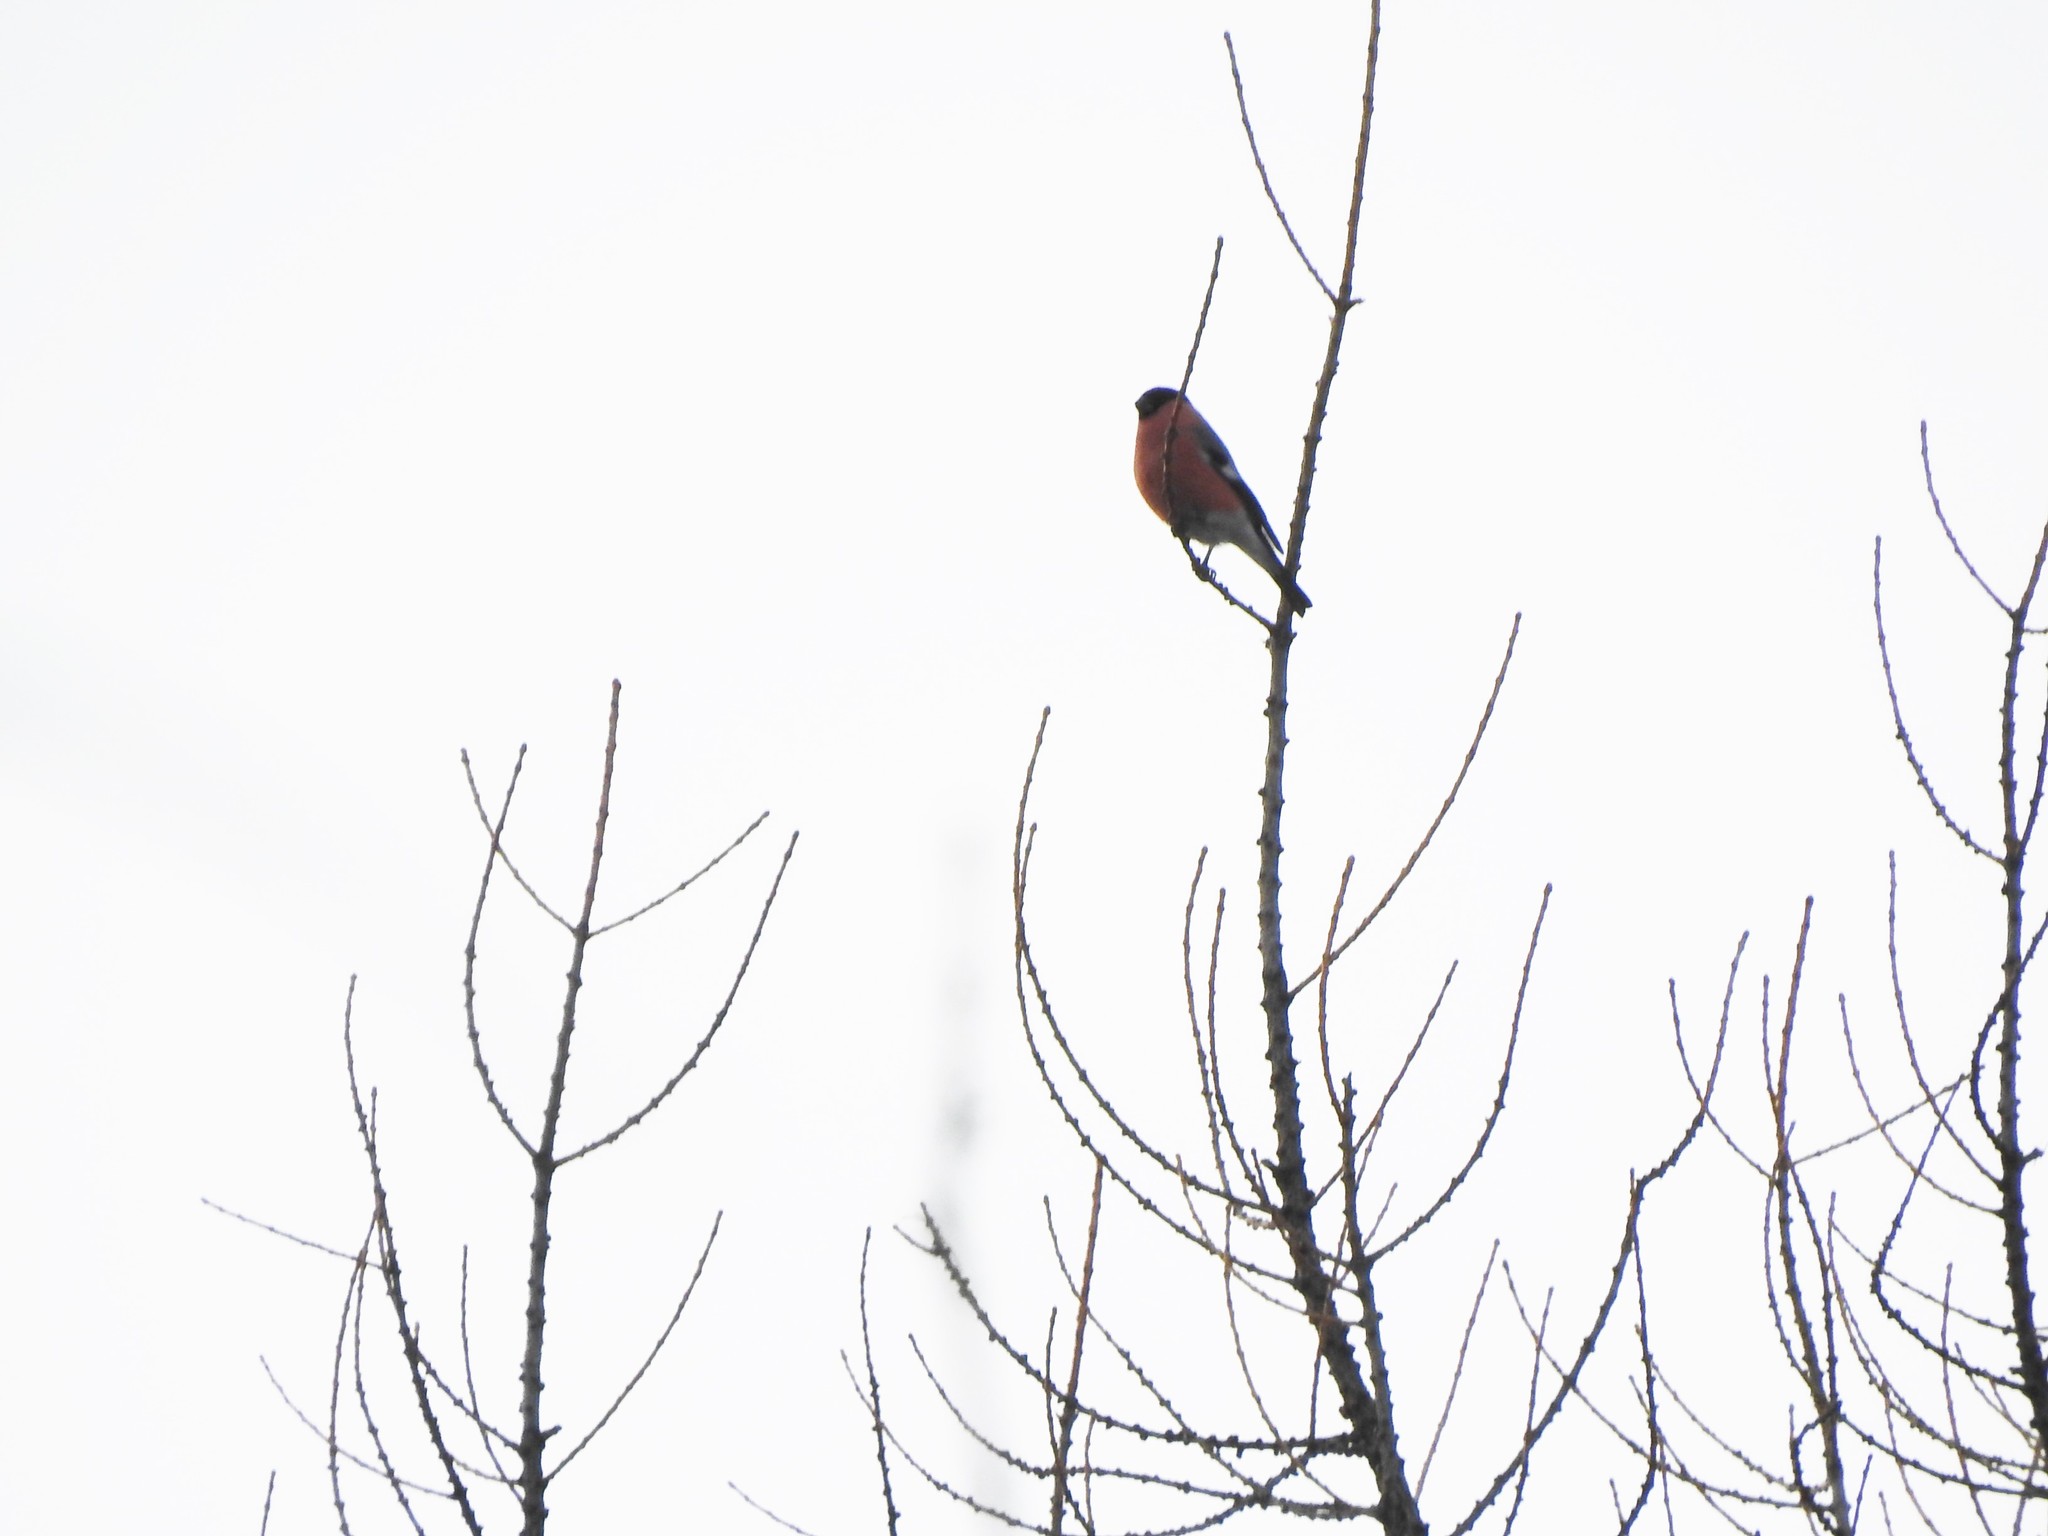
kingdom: Animalia
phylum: Chordata
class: Aves
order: Passeriformes
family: Fringillidae
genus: Pyrrhula
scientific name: Pyrrhula pyrrhula
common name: Eurasian bullfinch
